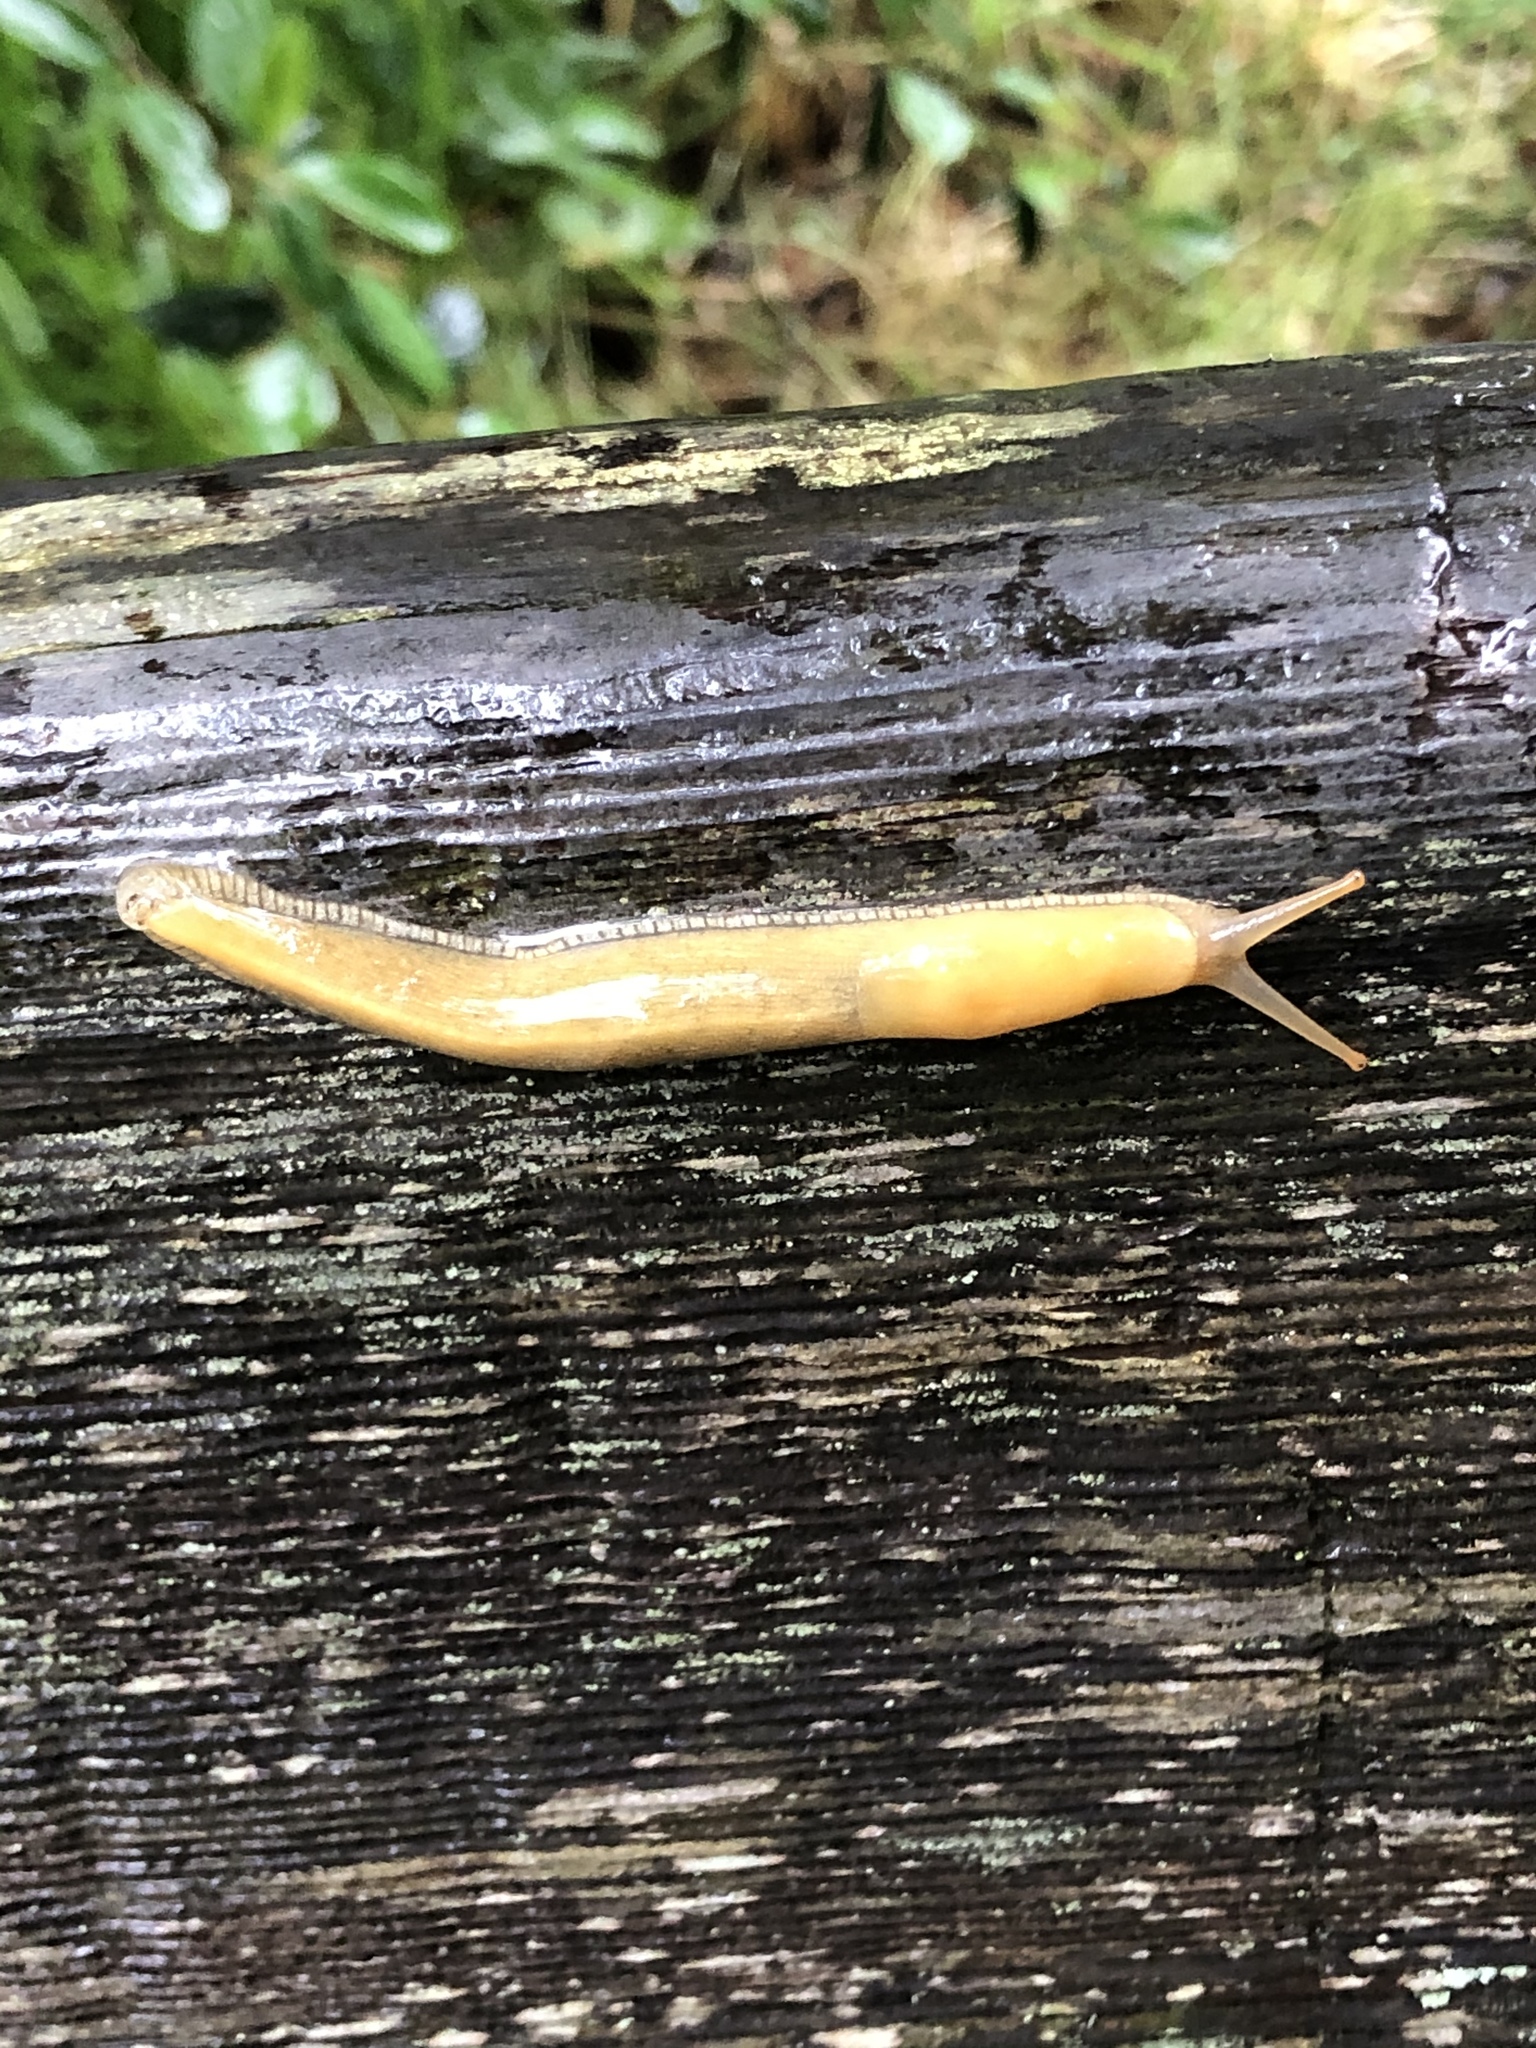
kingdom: Animalia
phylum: Mollusca
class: Gastropoda
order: Stylommatophora
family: Ariolimacidae
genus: Ariolimax
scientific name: Ariolimax columbianus
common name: Pacific banana slug
